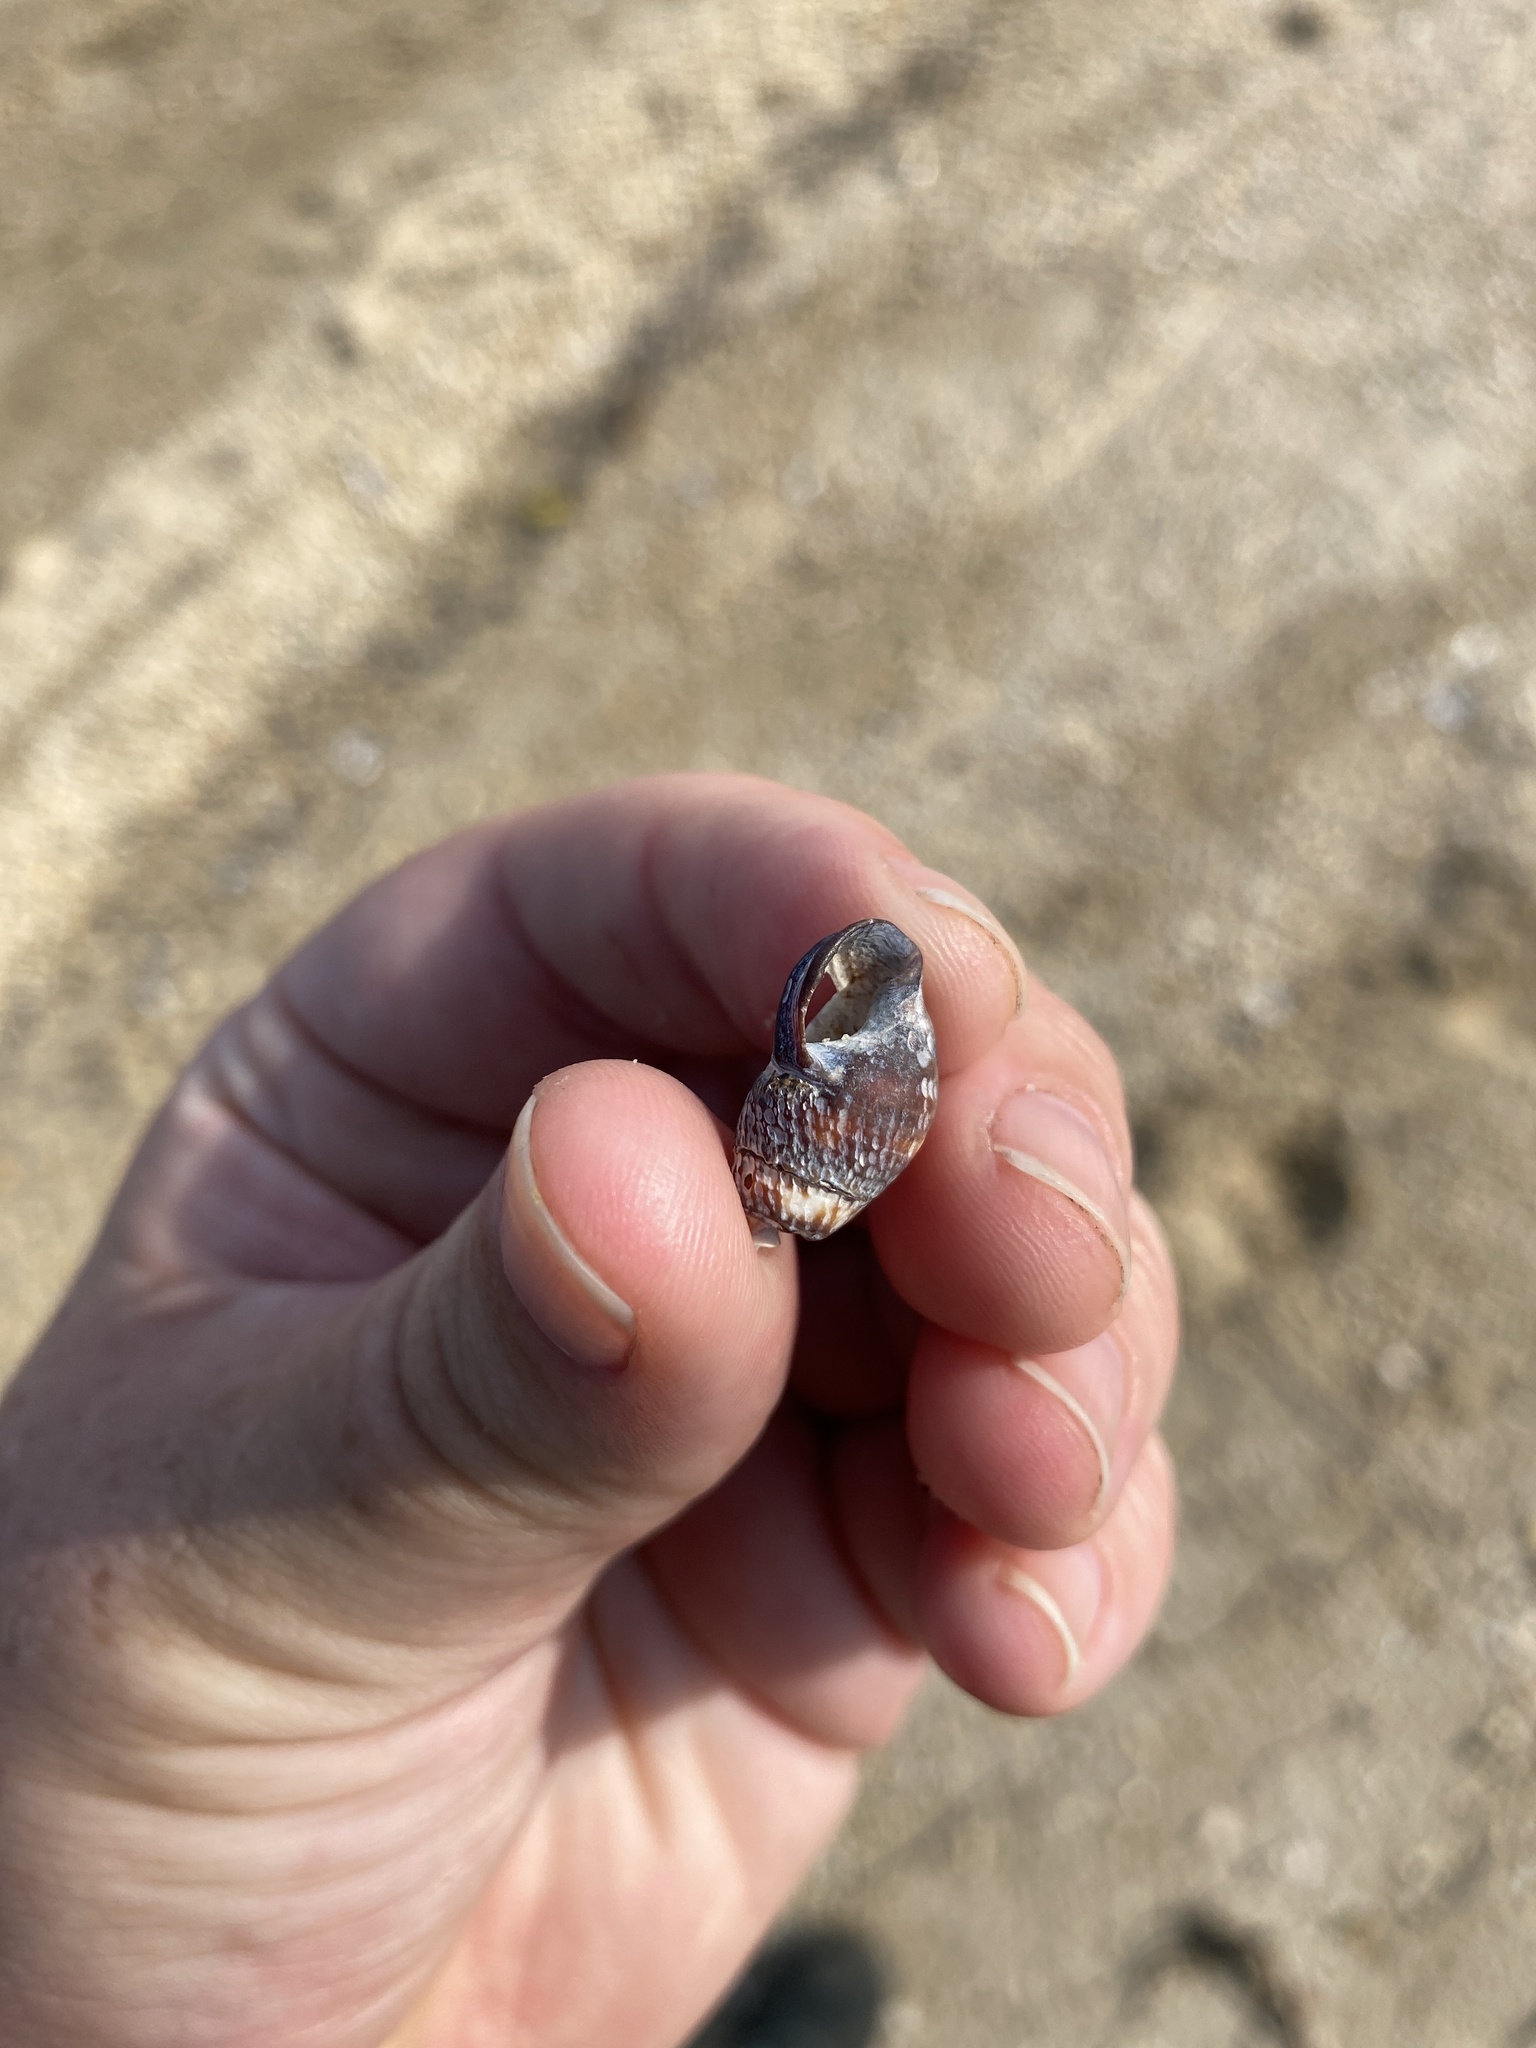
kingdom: Animalia
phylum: Mollusca
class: Gastropoda
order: Neogastropoda
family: Nassariidae
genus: Ilyanassa
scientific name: Ilyanassa obsoleta
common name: Eastern mudsnail
